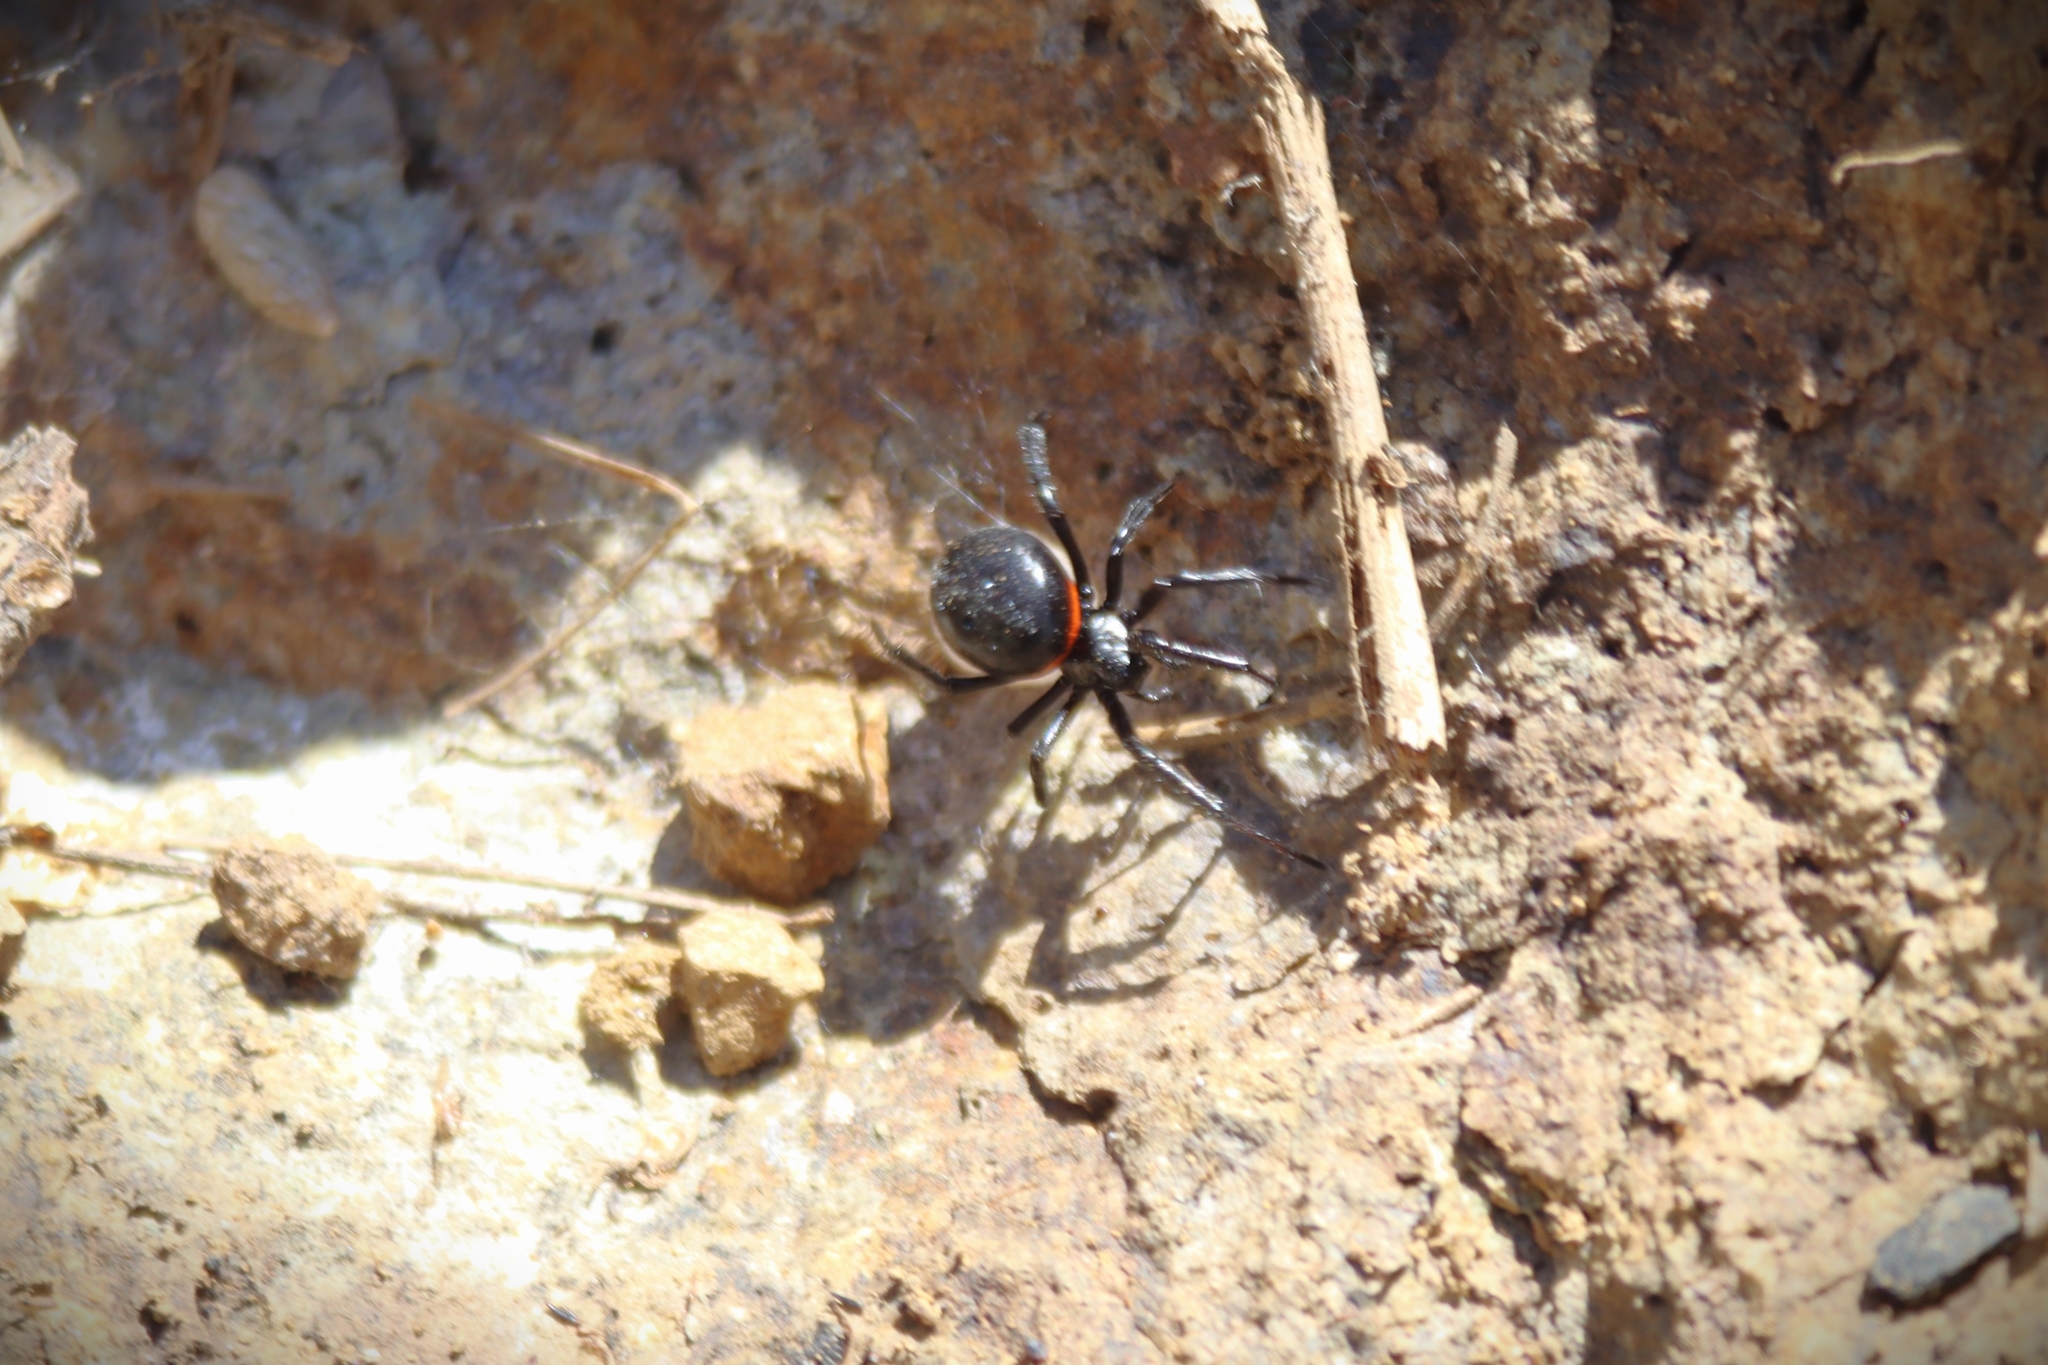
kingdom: Animalia
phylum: Arthropoda
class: Arachnida
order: Araneae
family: Theridiidae
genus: Steatoda
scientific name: Steatoda paykulliana
